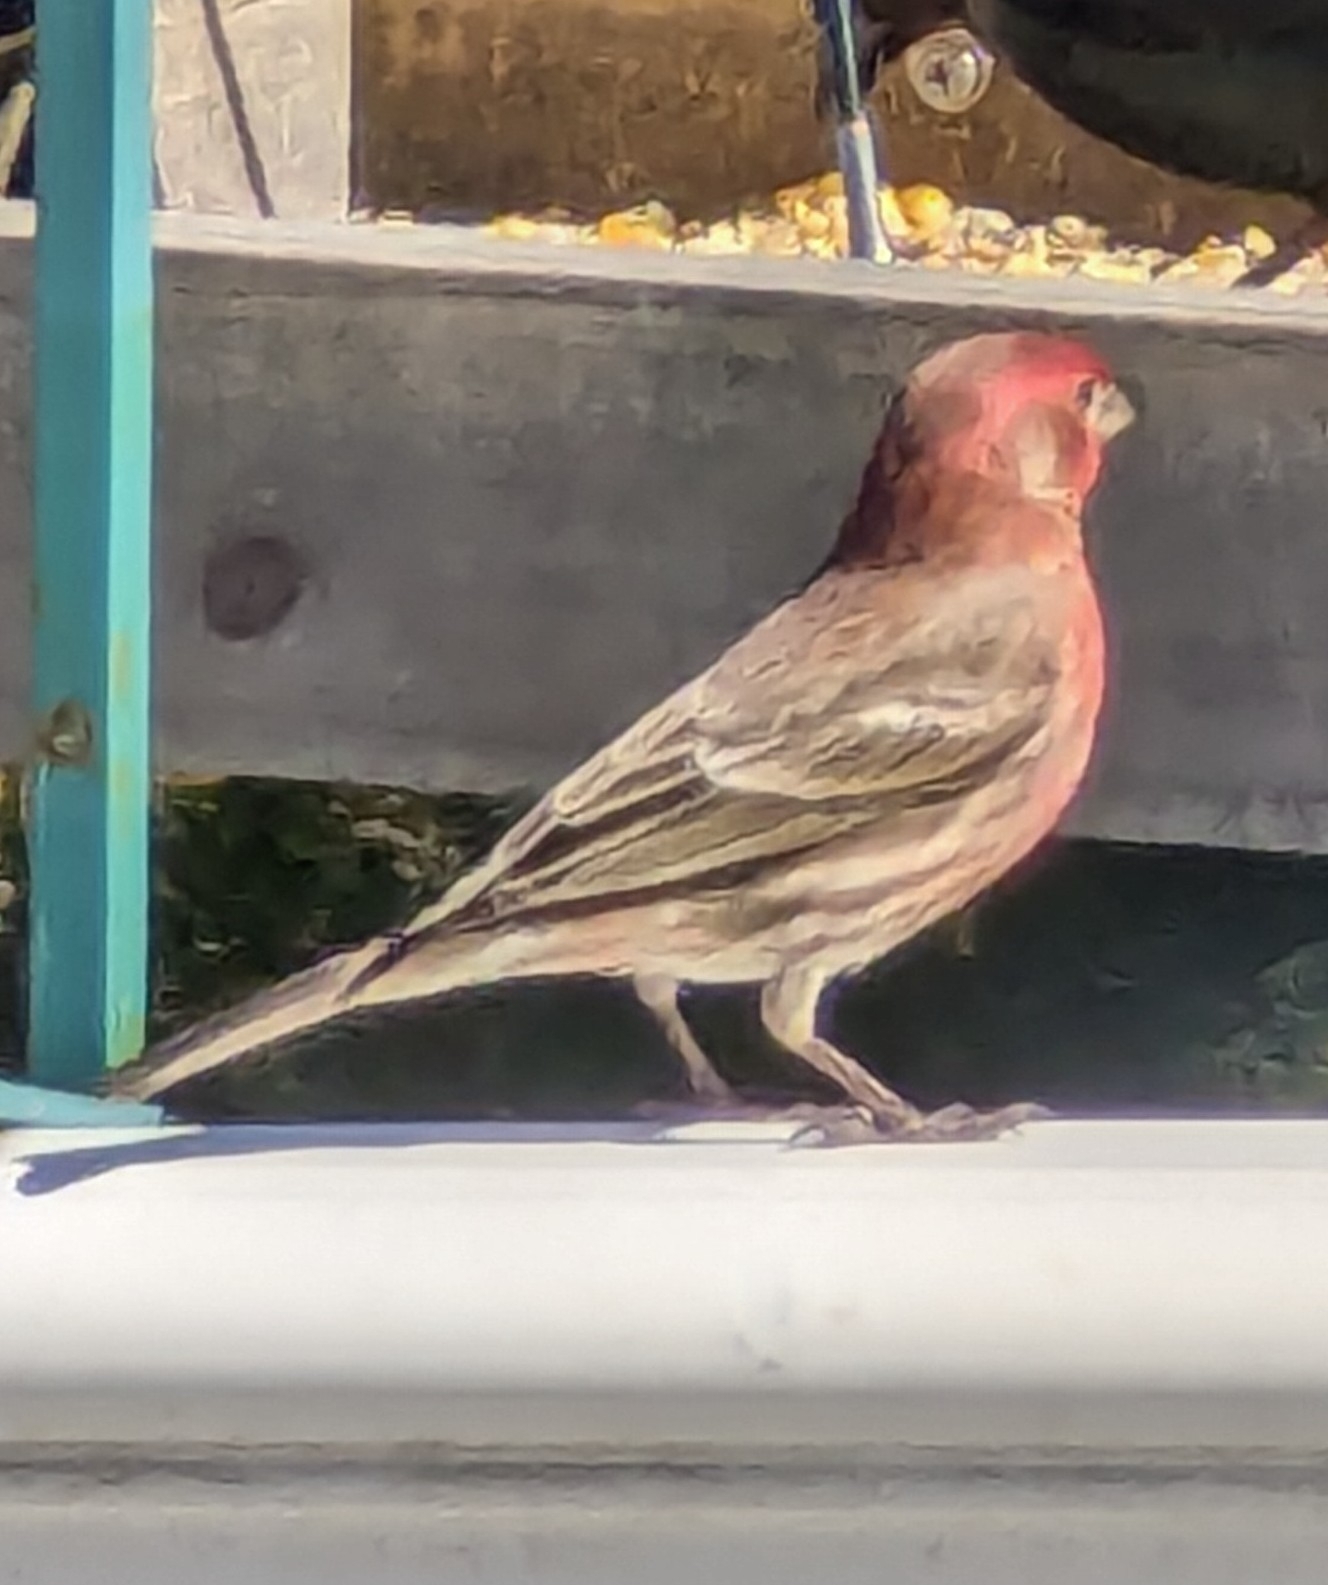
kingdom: Animalia
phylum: Chordata
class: Aves
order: Passeriformes
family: Fringillidae
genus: Haemorhous
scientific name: Haemorhous mexicanus
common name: House finch
